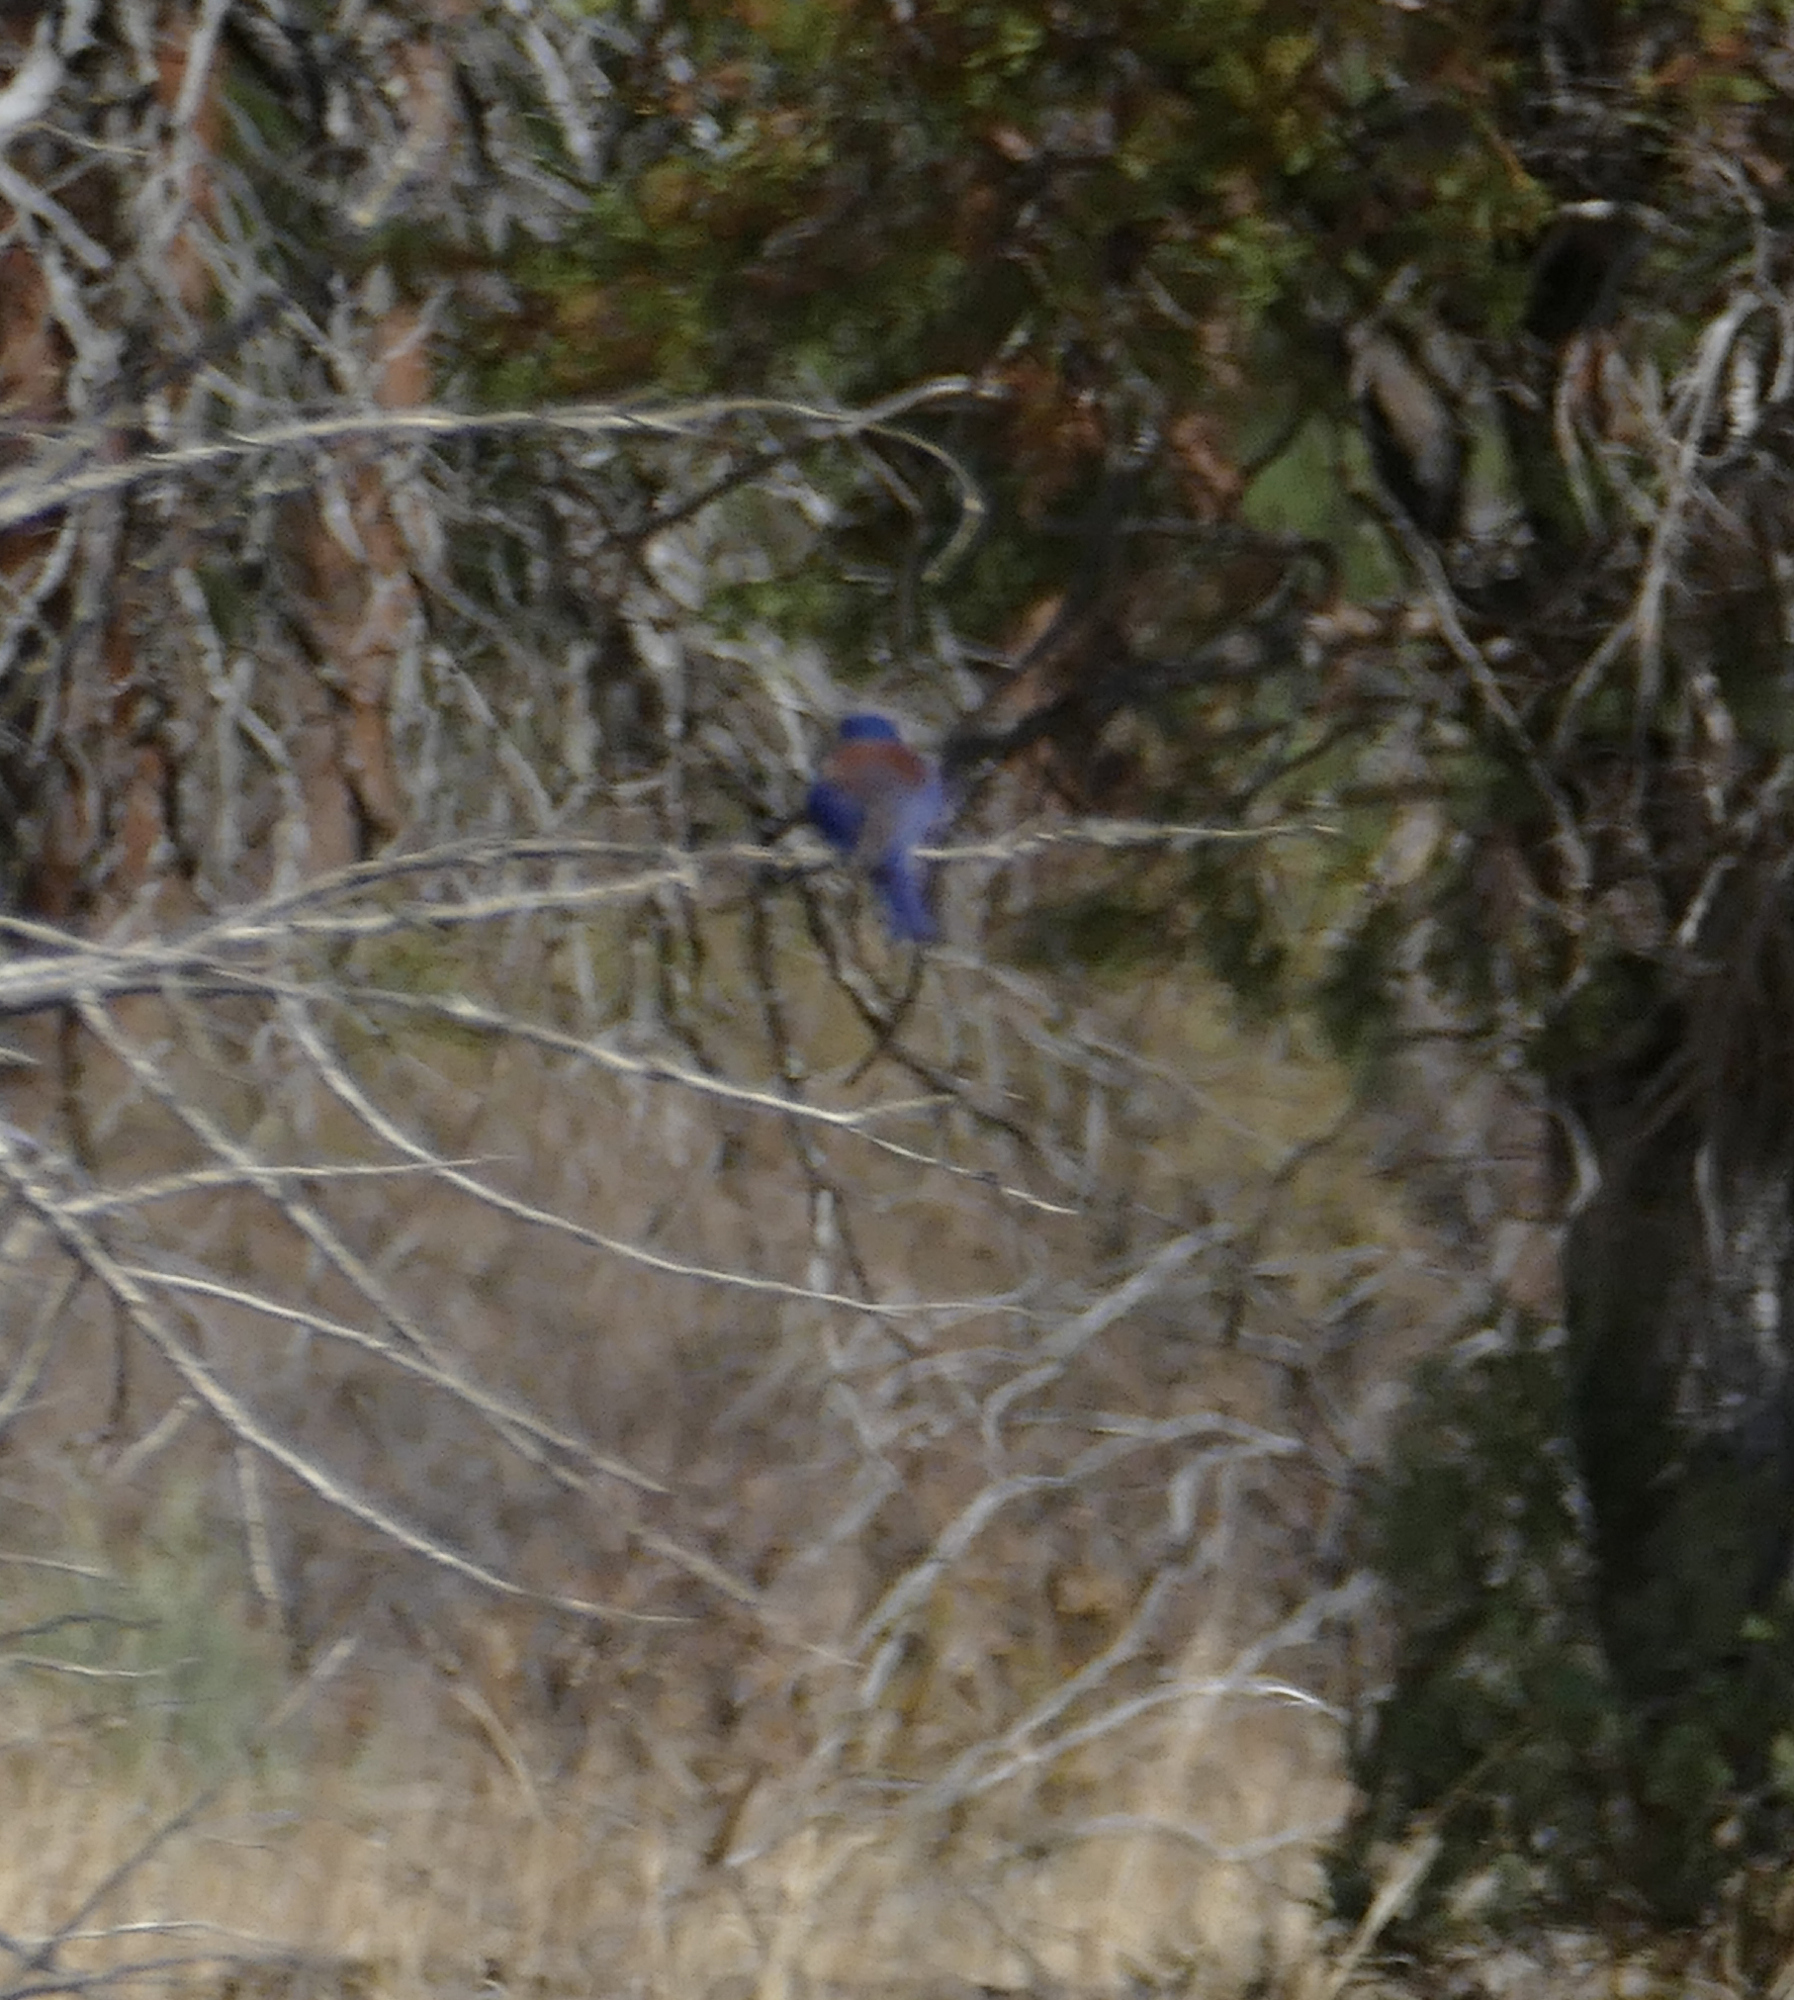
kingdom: Animalia
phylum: Chordata
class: Aves
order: Passeriformes
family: Turdidae
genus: Sialia
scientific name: Sialia mexicana
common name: Western bluebird
